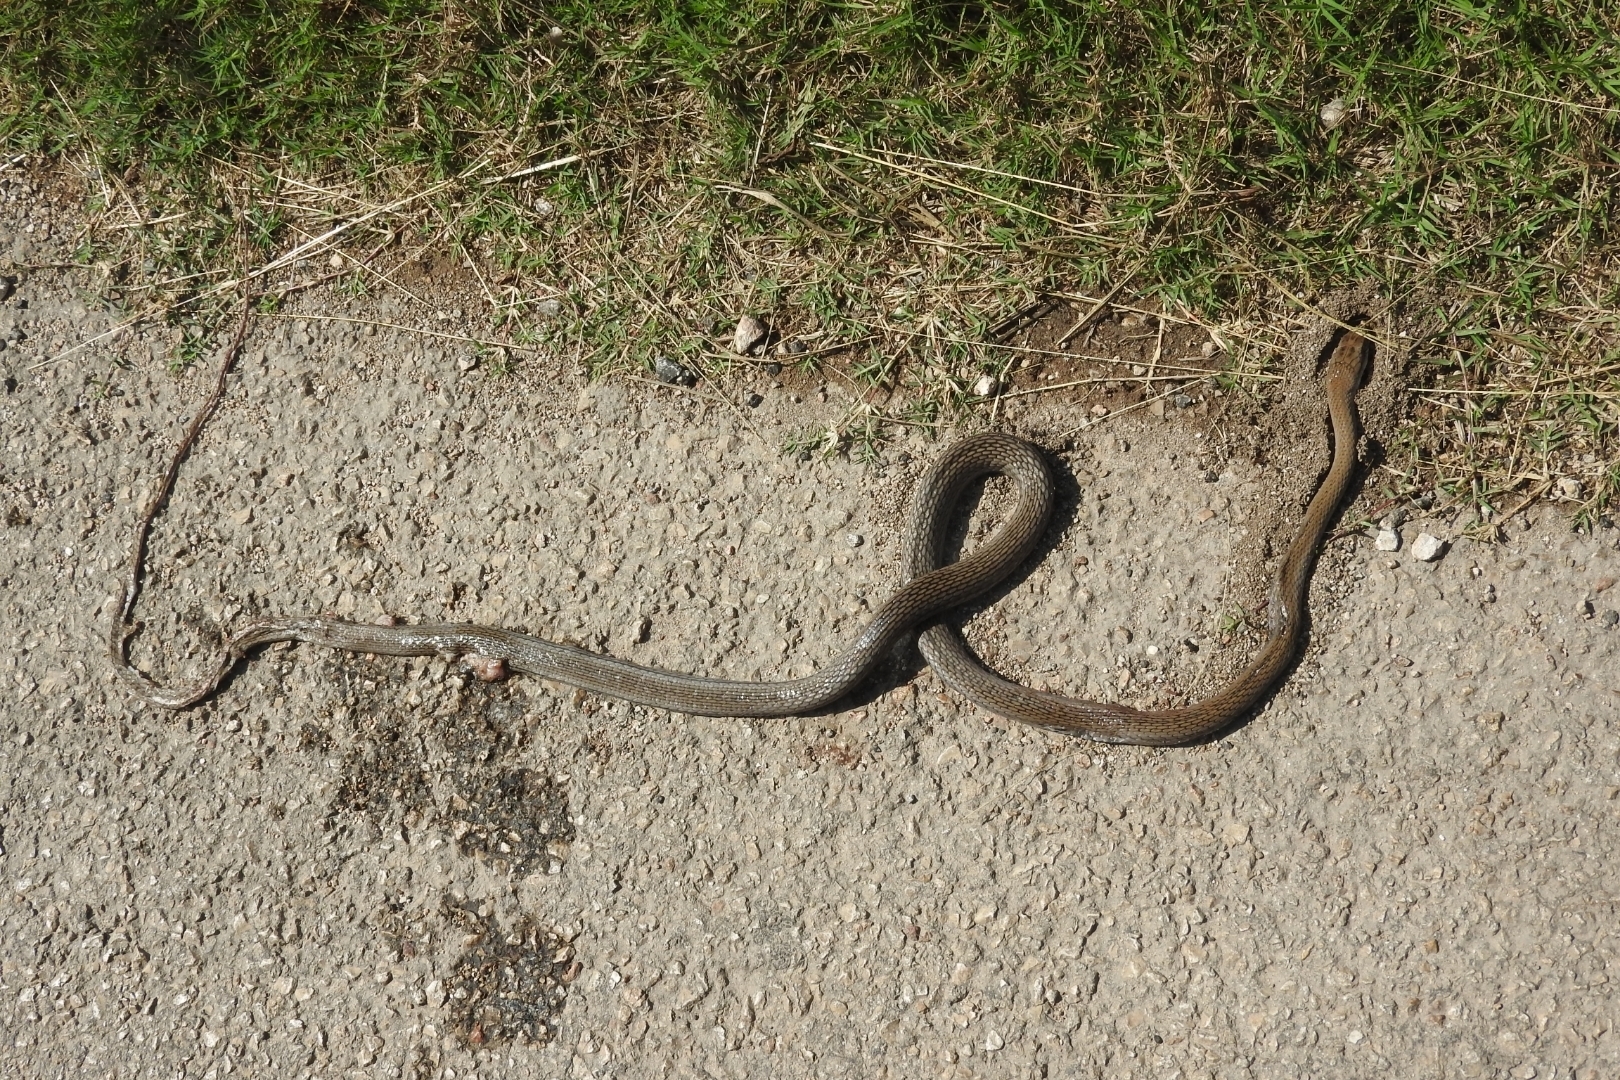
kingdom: Animalia
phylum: Chordata
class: Squamata
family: Colubridae
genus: Mastigodryas
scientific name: Mastigodryas melanolomus
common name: Salmon-bellied racer
